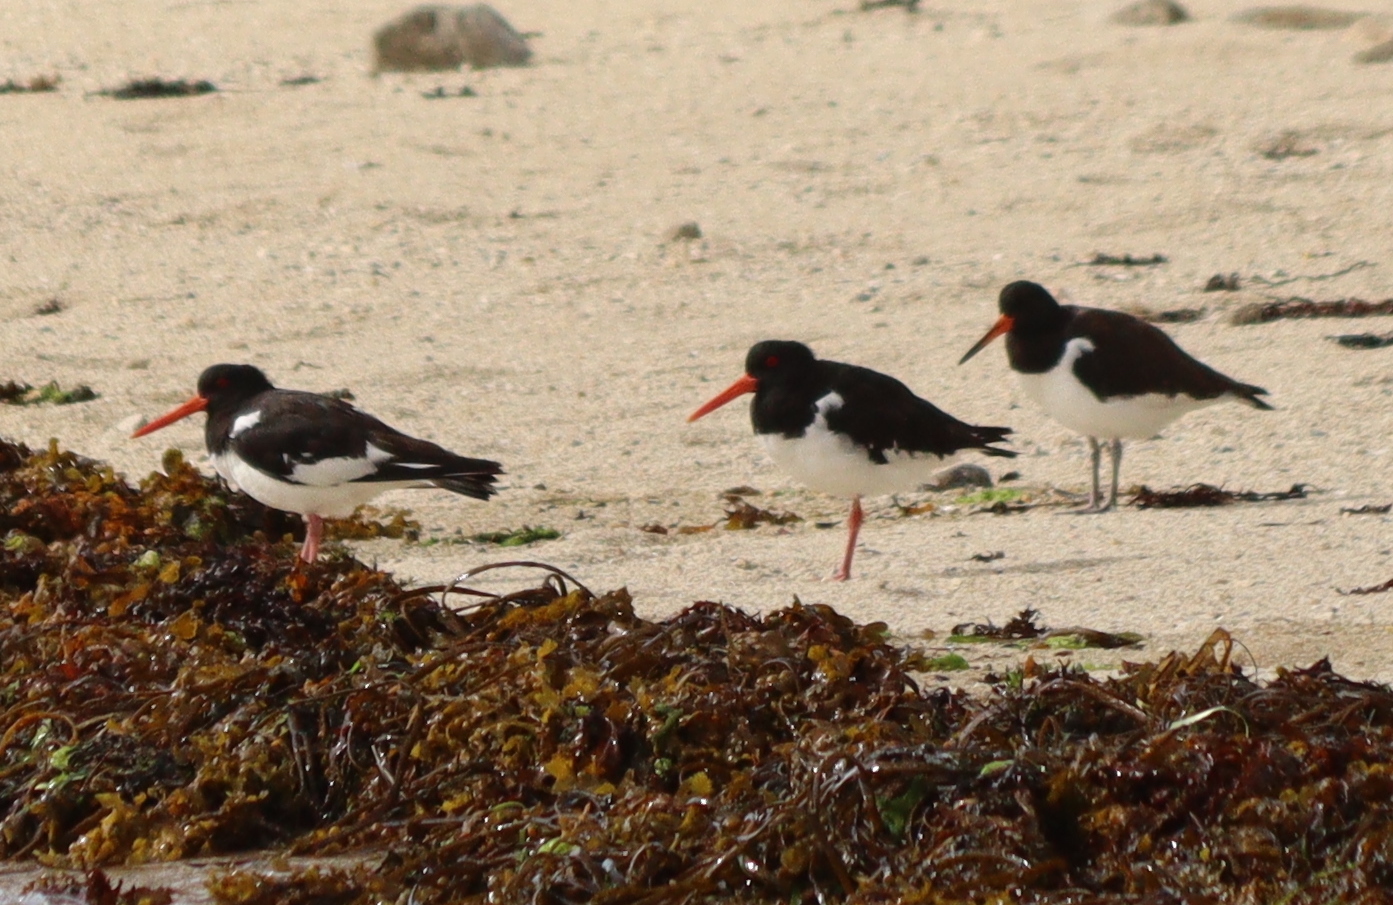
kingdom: Animalia
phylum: Chordata
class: Aves
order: Charadriiformes
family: Haematopodidae
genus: Haematopus
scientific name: Haematopus ostralegus
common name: Eurasian oystercatcher
